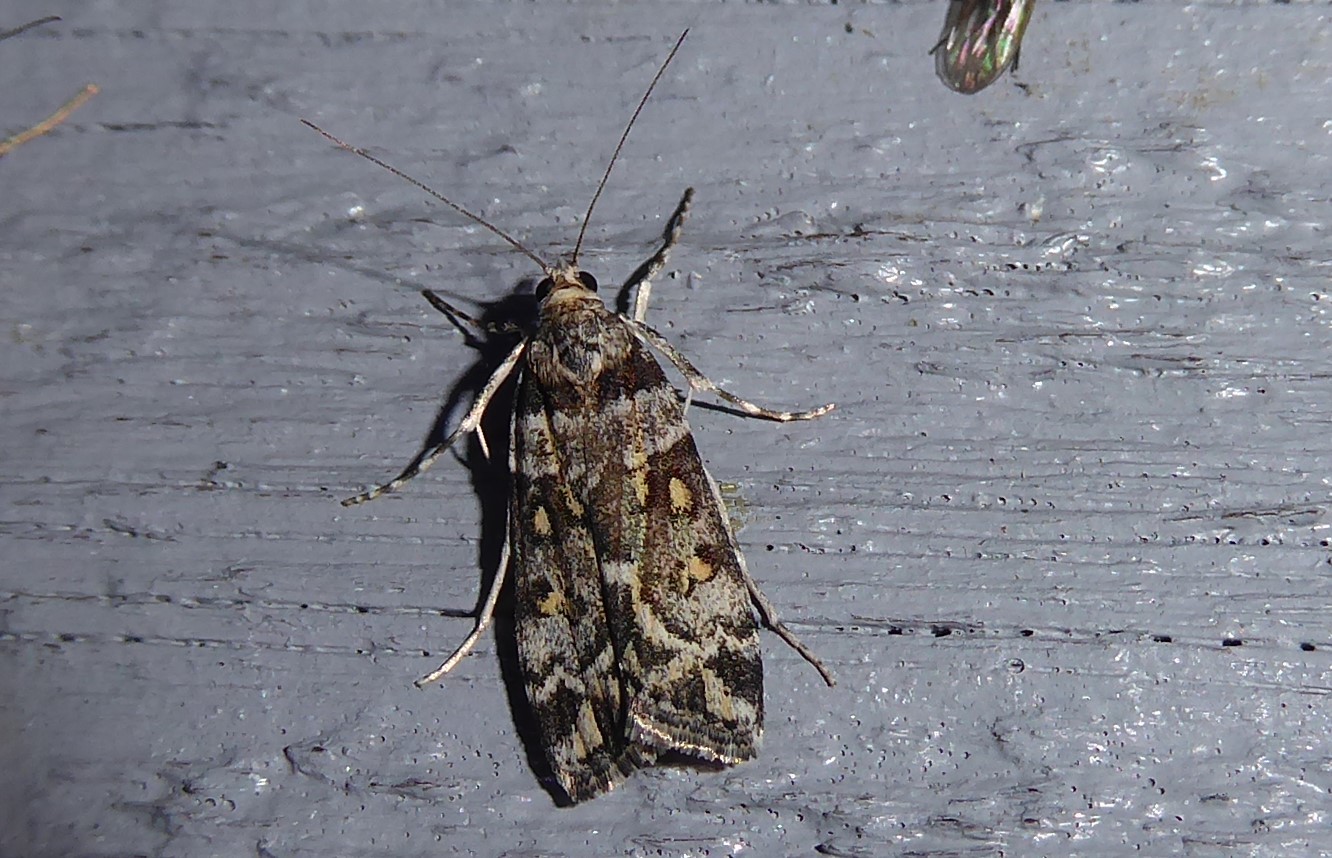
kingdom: Animalia
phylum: Arthropoda
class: Insecta
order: Lepidoptera
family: Crambidae
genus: Eudonia
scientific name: Eudonia diphtheralis
